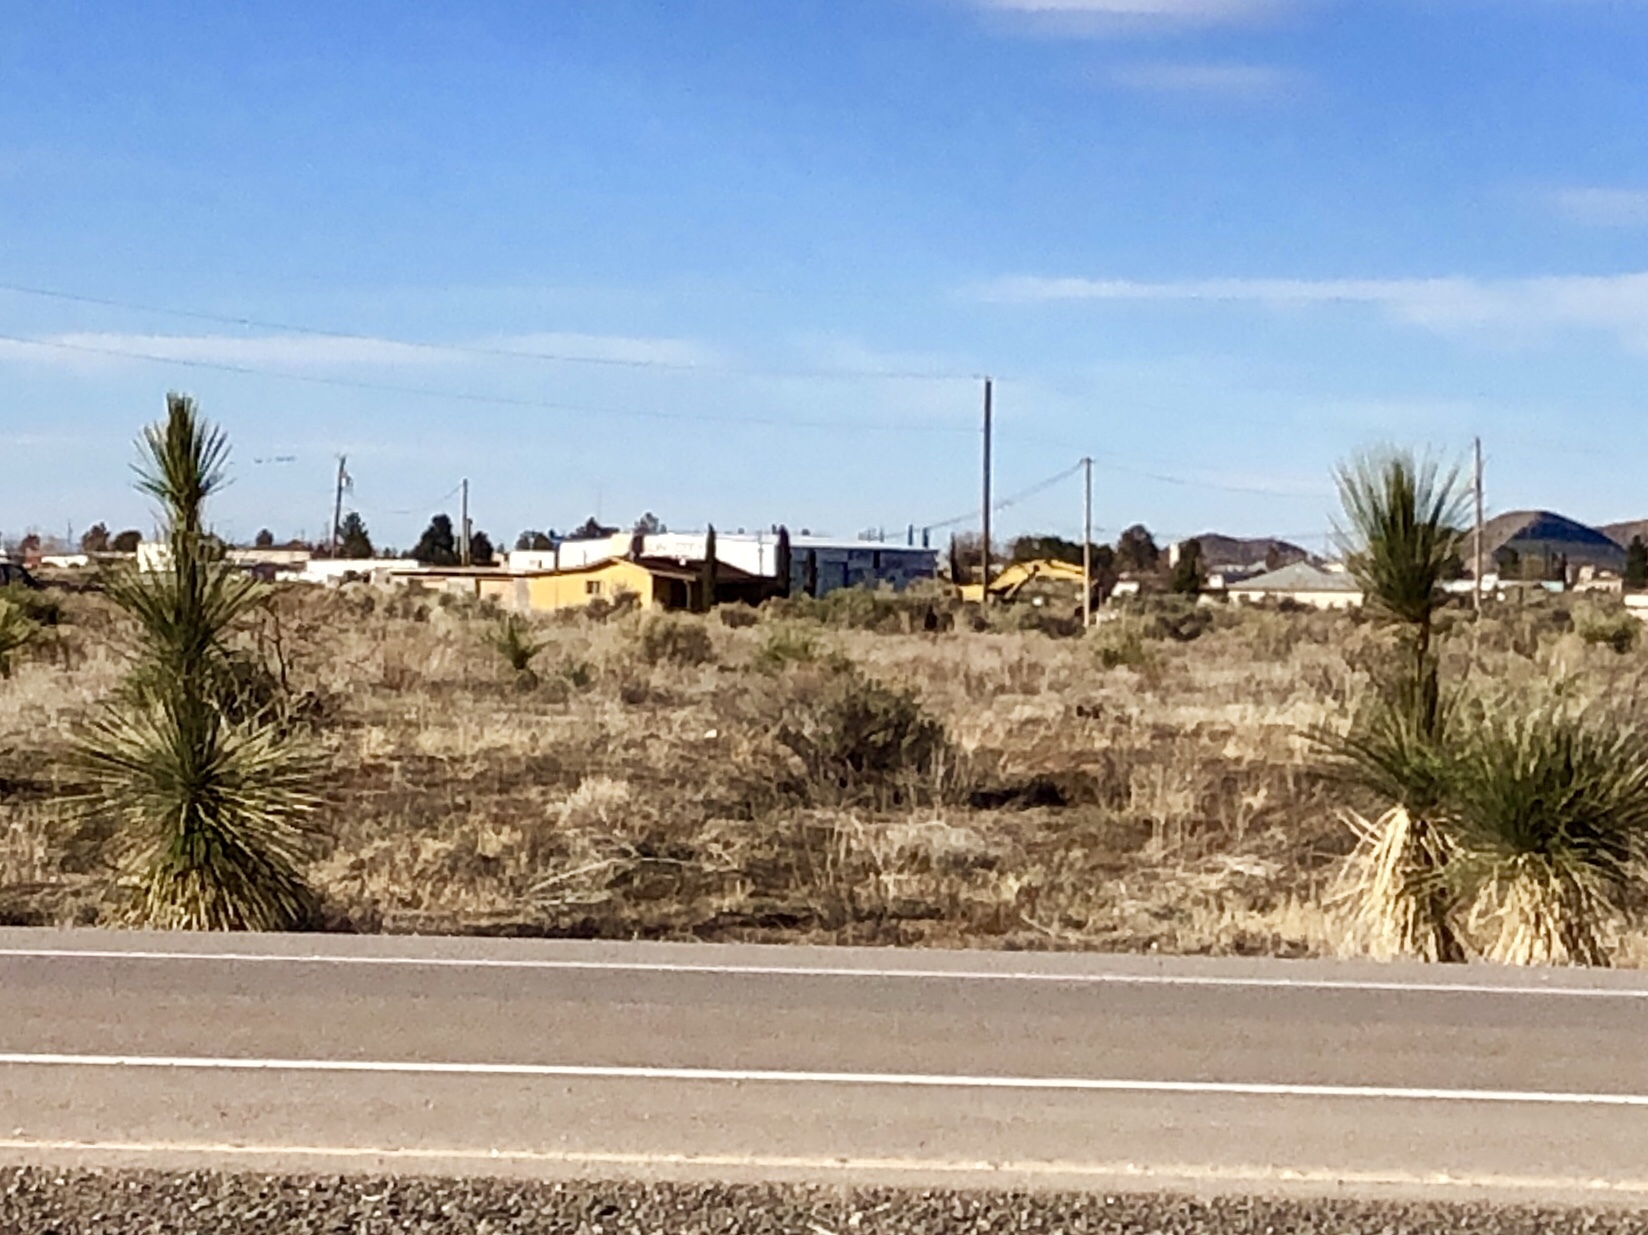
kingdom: Plantae
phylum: Tracheophyta
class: Liliopsida
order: Asparagales
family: Asparagaceae
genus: Yucca
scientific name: Yucca elata
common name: Palmella
